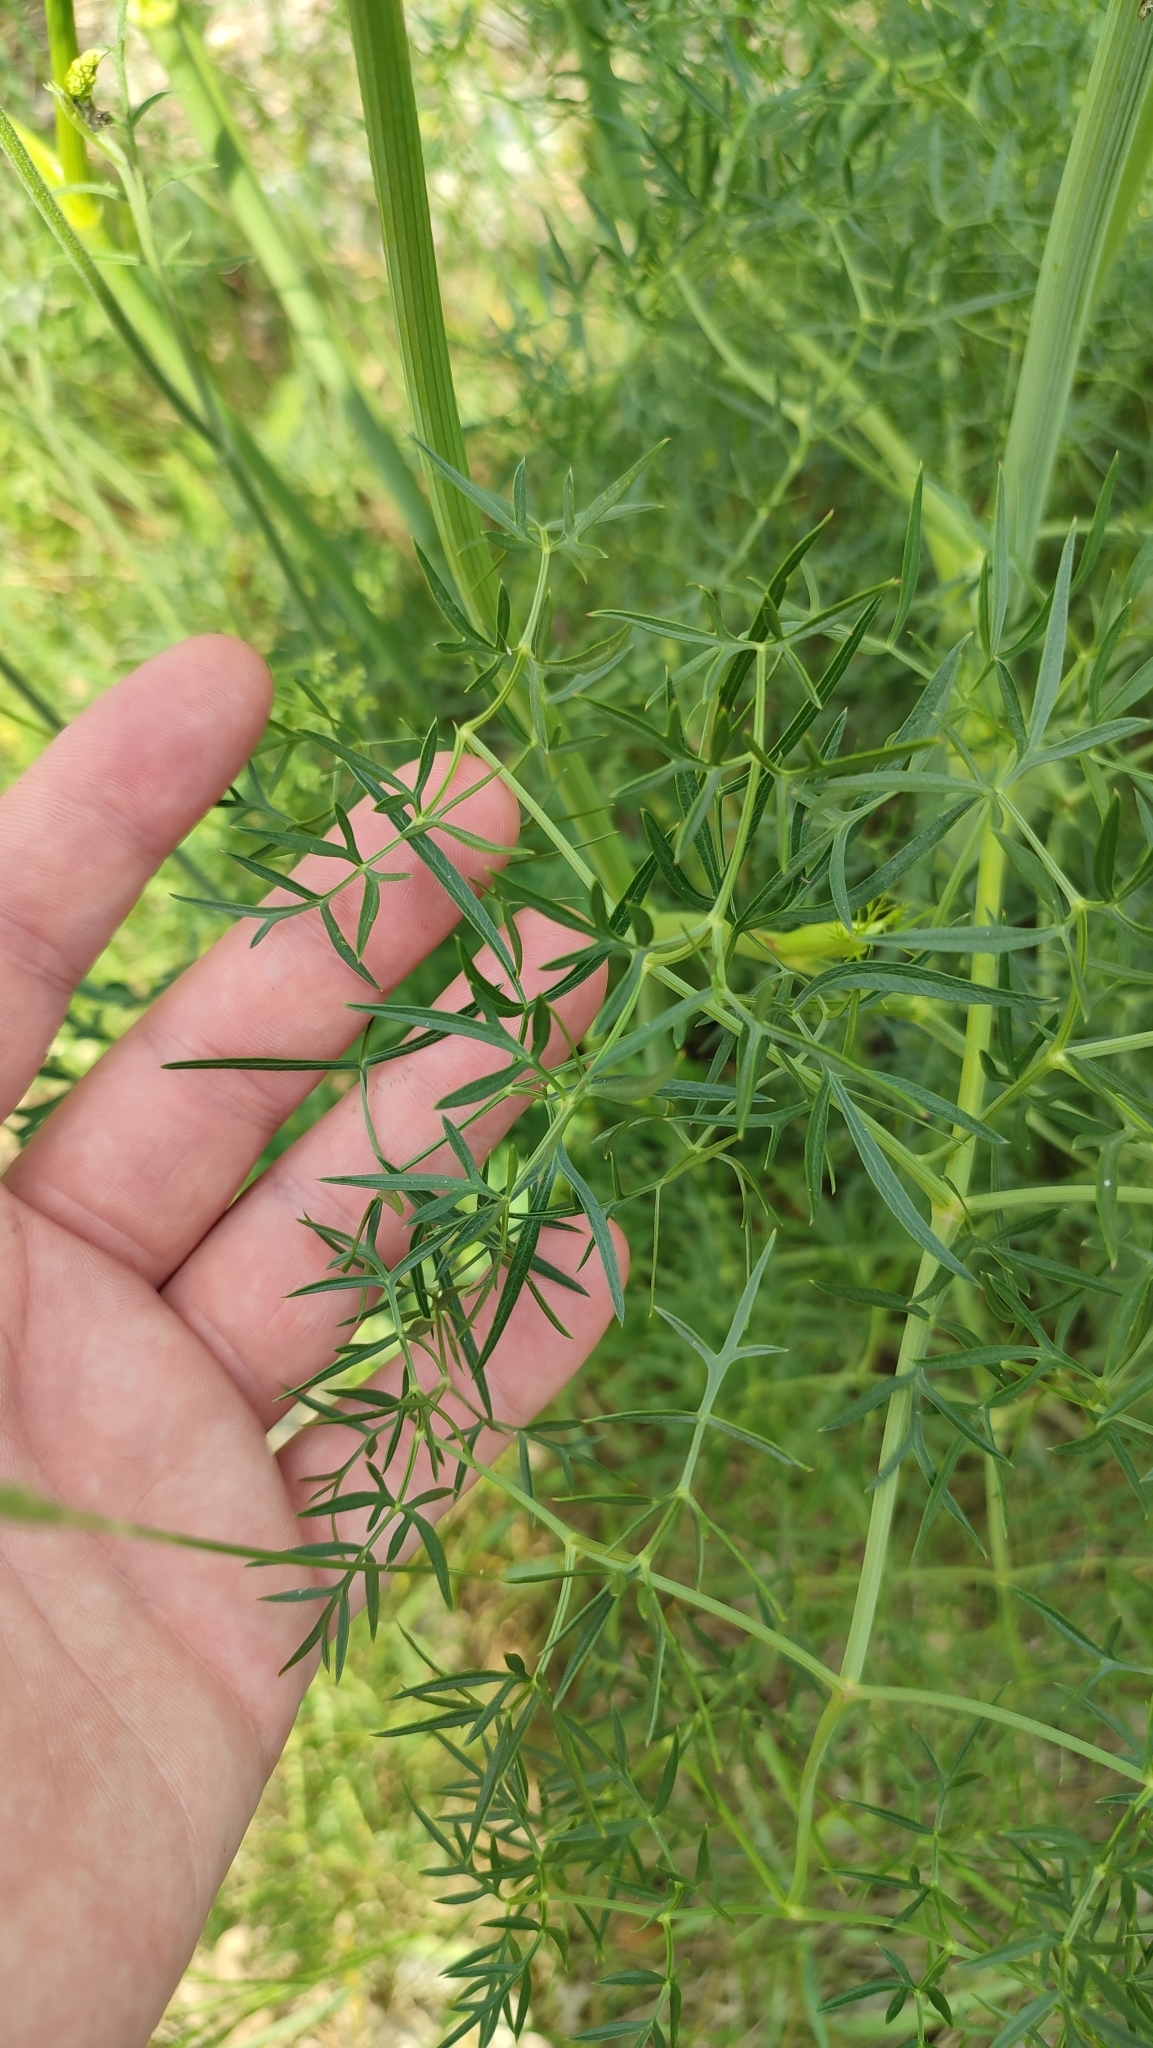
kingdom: Plantae
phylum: Tracheophyta
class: Magnoliopsida
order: Apiales
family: Apiaceae
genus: Cenolophium
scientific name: Cenolophium fischeri
